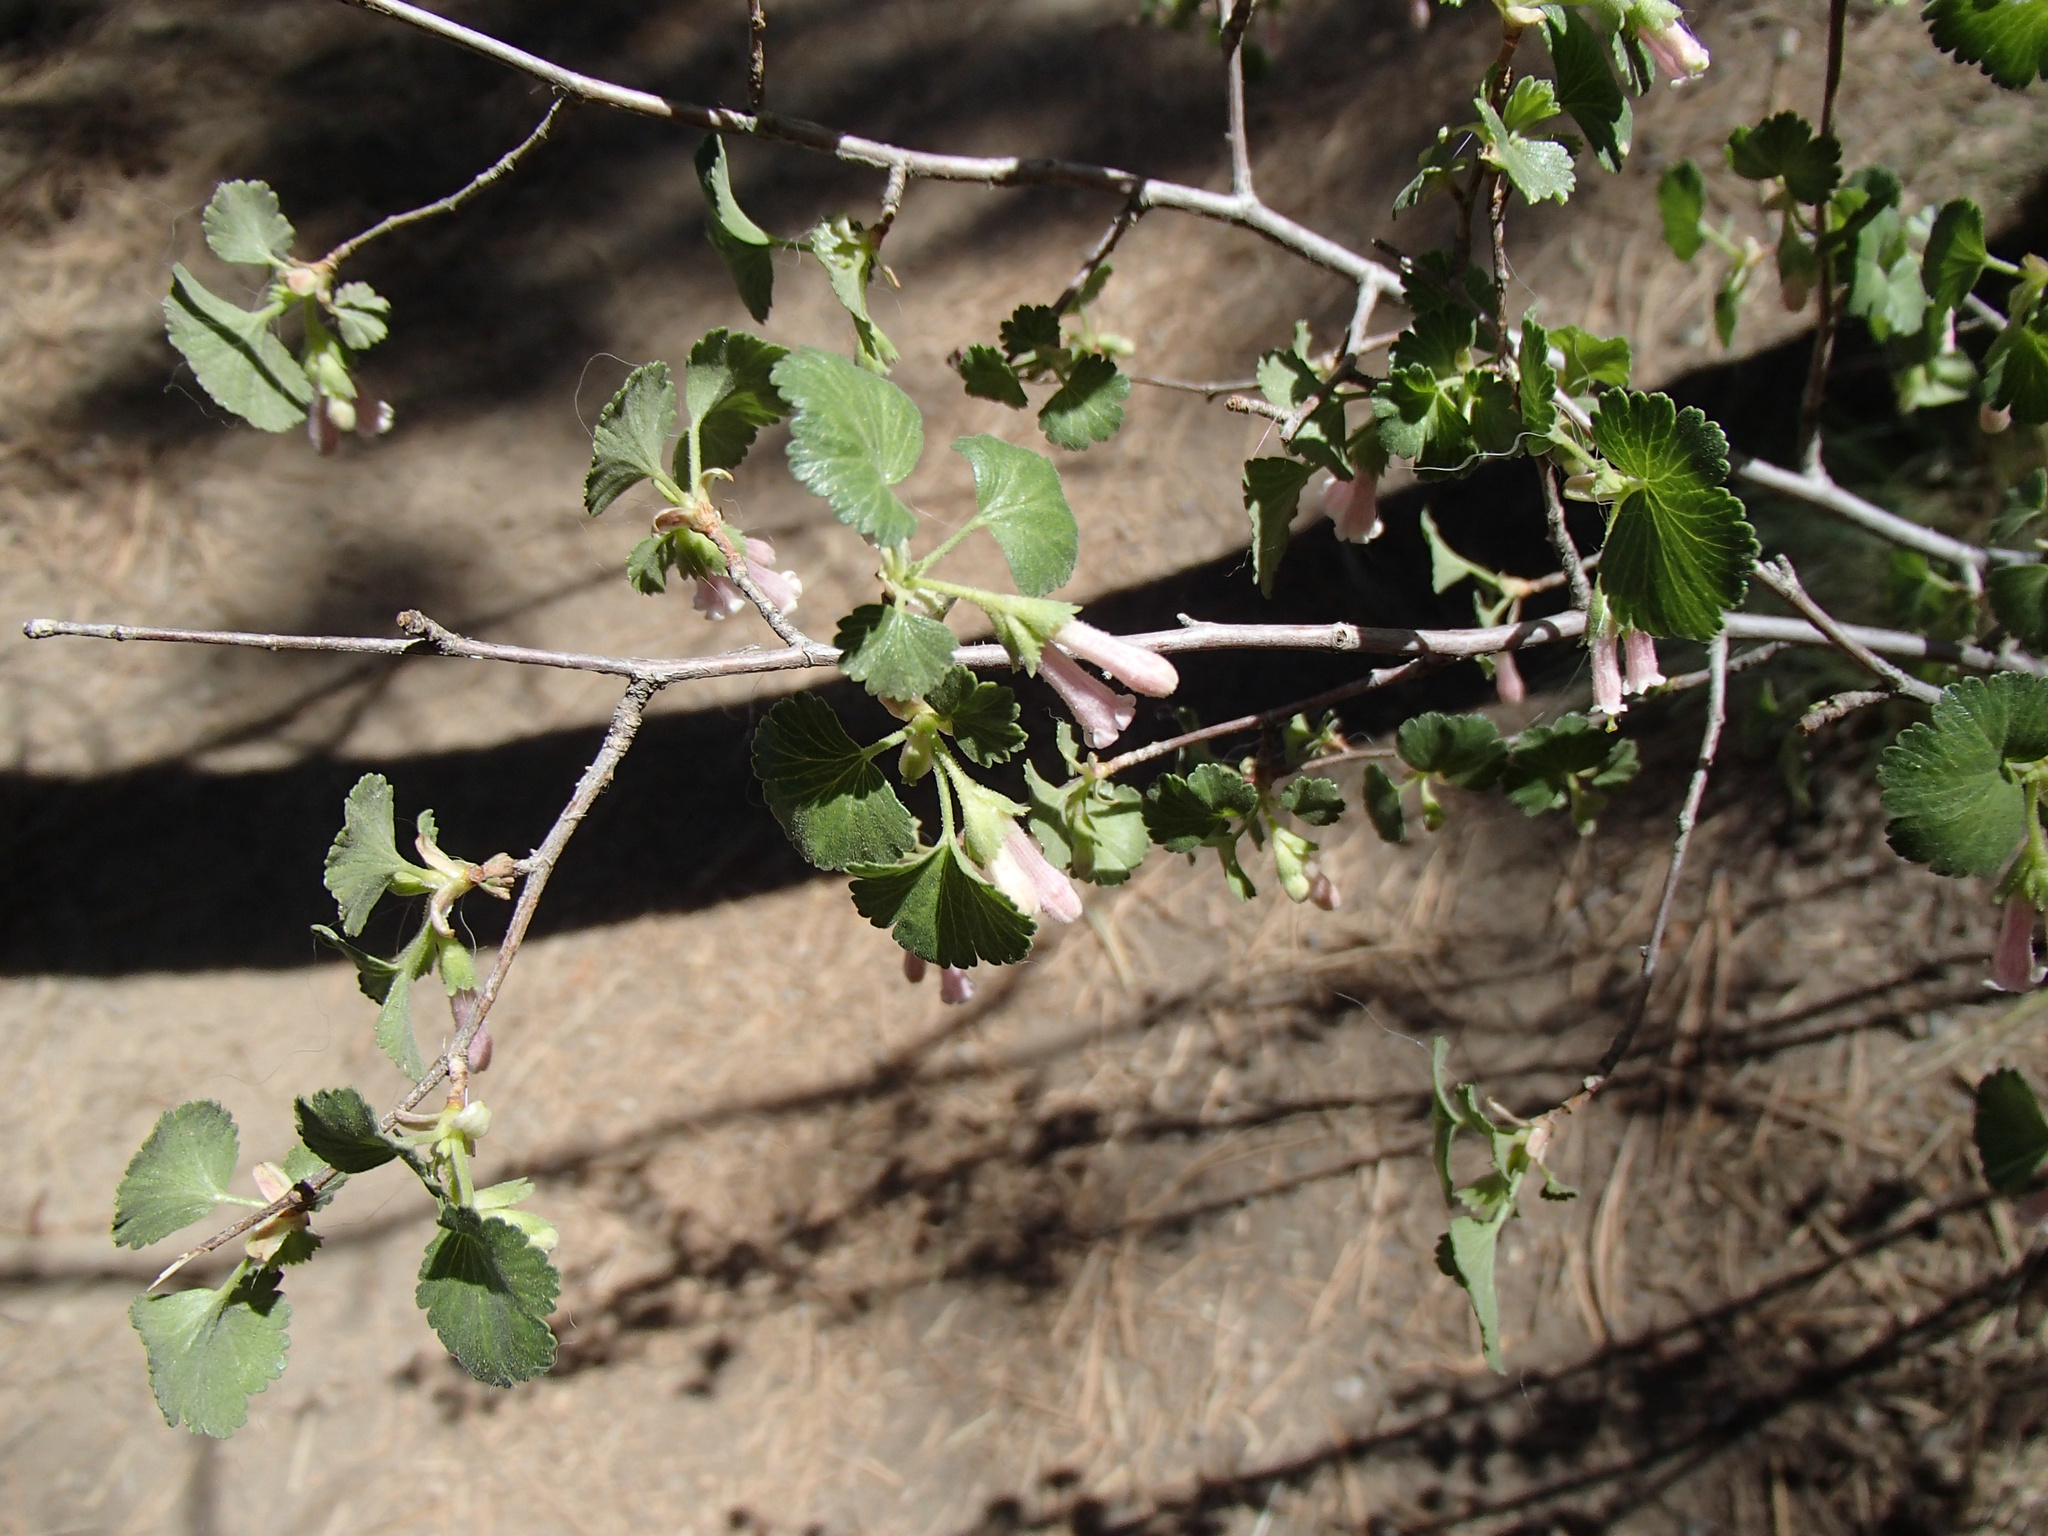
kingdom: Plantae
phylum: Tracheophyta
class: Magnoliopsida
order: Saxifragales
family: Grossulariaceae
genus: Ribes
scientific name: Ribes cereum
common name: Wax currant
